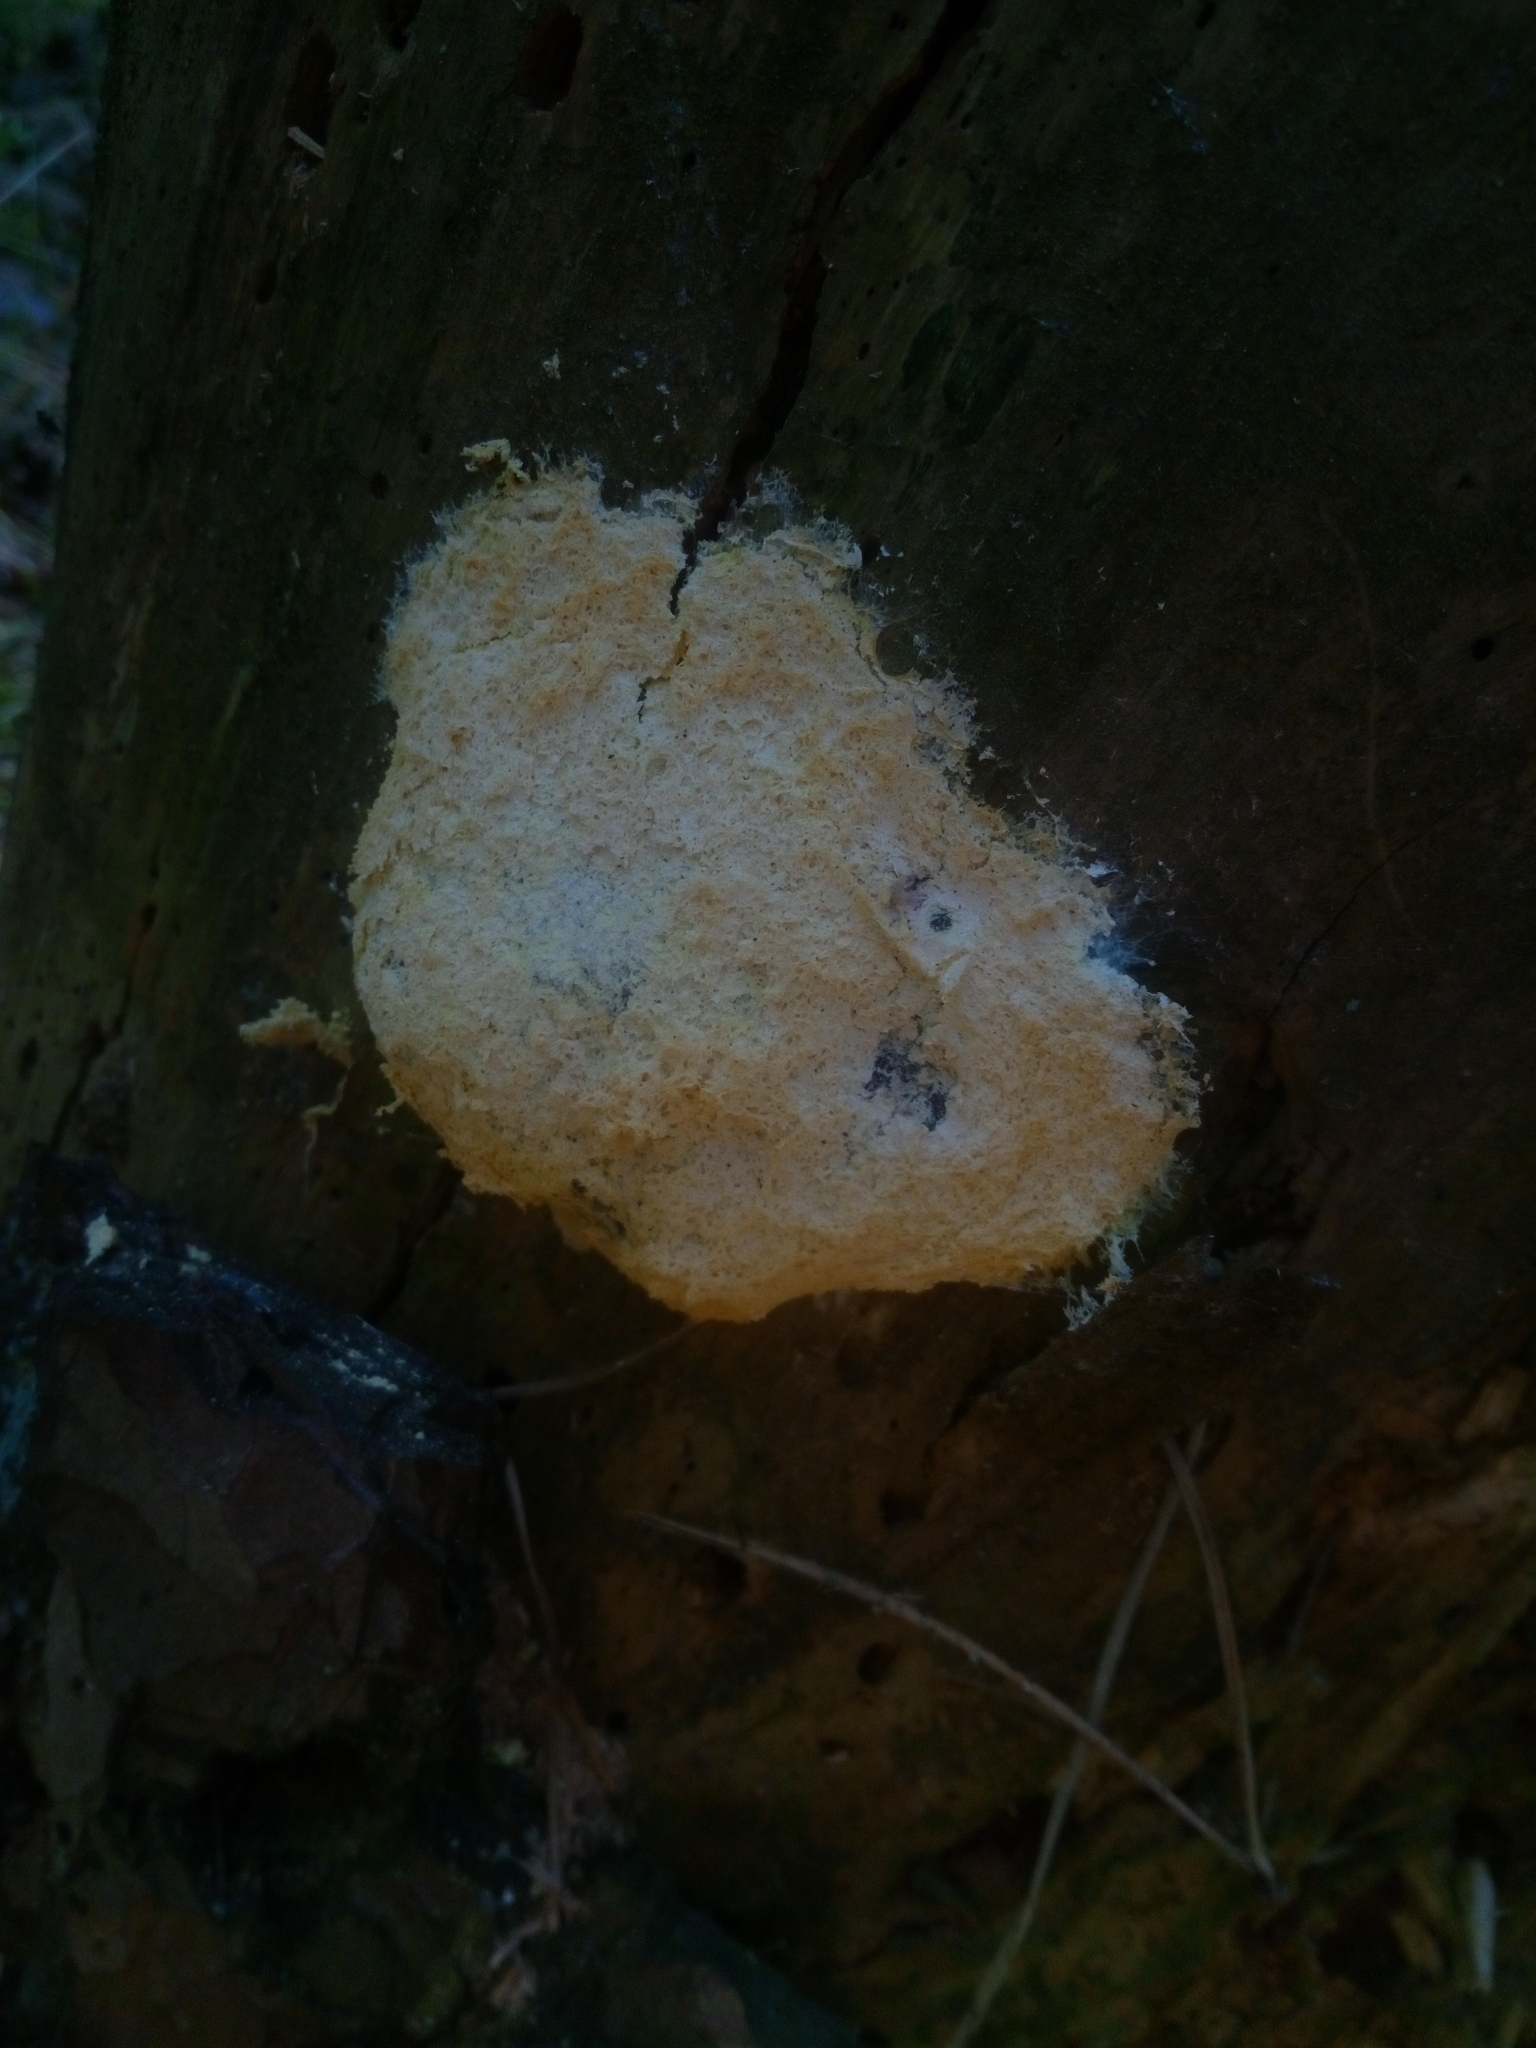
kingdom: Protozoa
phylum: Mycetozoa
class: Myxomycetes
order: Cribrariales
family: Tubiferaceae
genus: Reticularia
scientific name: Reticularia lycoperdon
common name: False puffball
